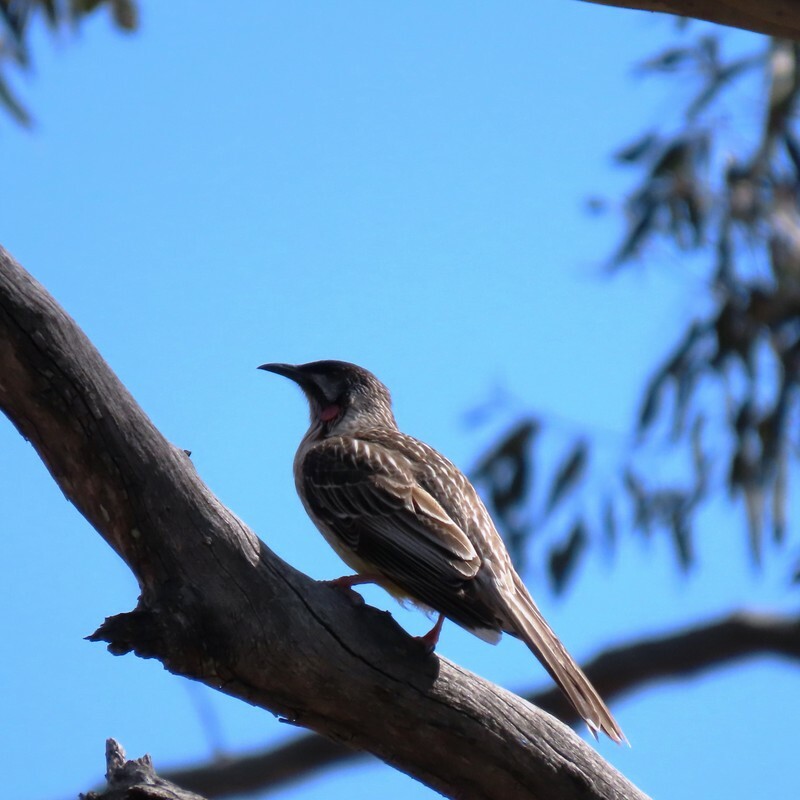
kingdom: Animalia
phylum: Chordata
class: Aves
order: Passeriformes
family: Meliphagidae
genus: Anthochaera
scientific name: Anthochaera carunculata
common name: Red wattlebird
